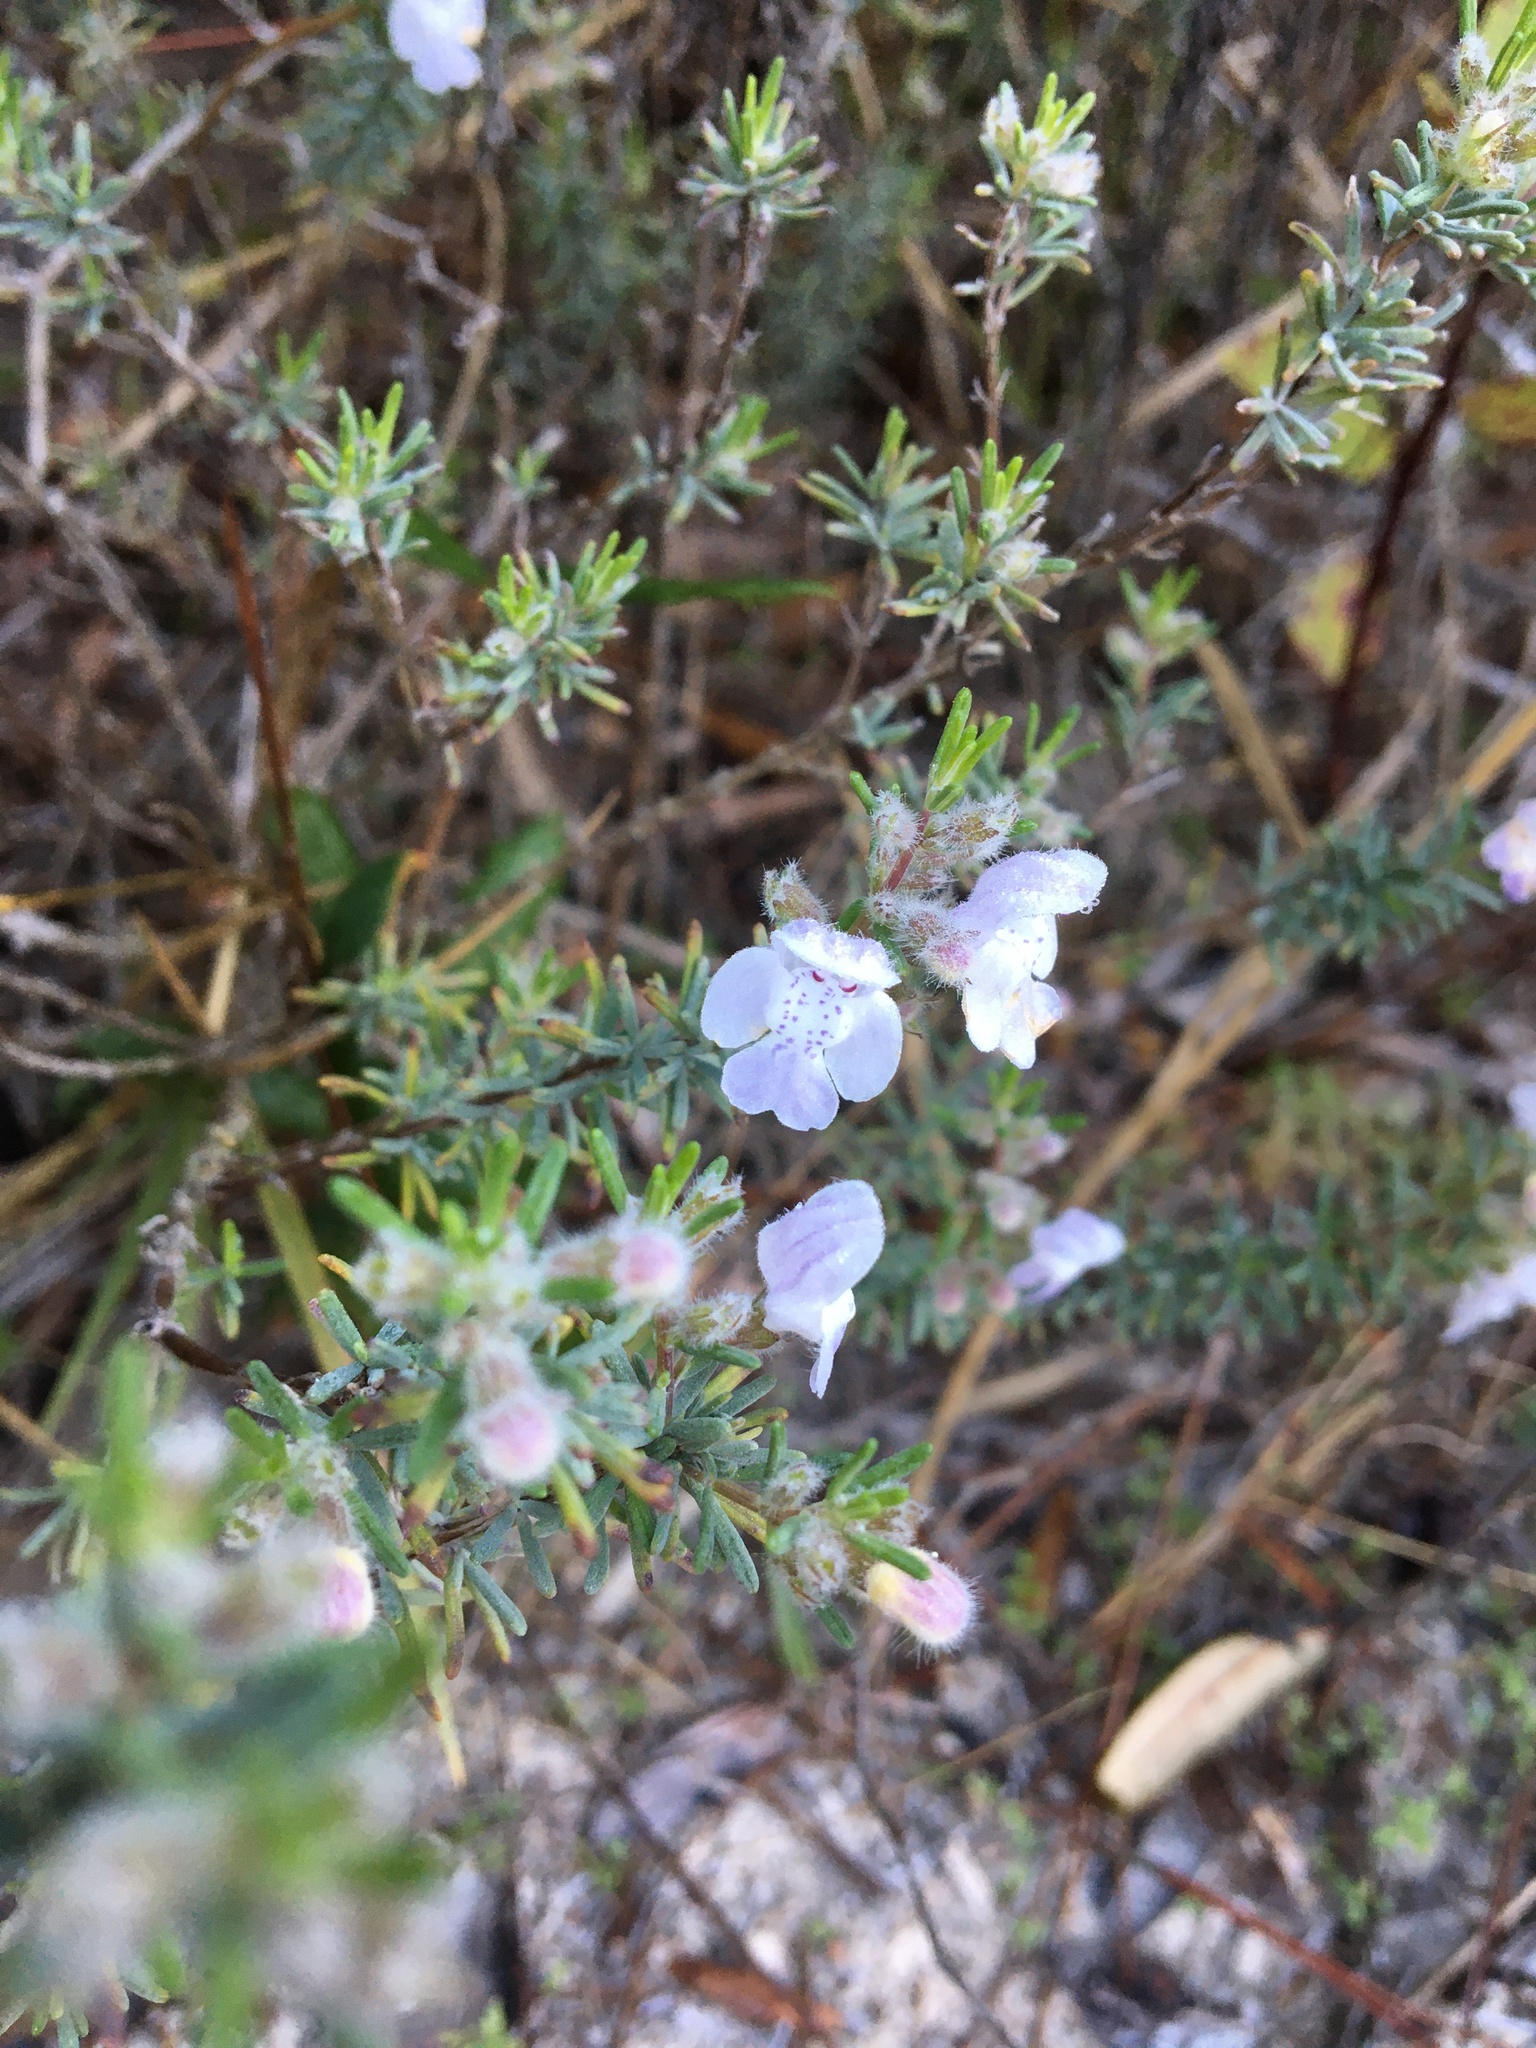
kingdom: Plantae
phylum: Tracheophyta
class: Magnoliopsida
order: Lamiales
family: Lamiaceae
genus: Conradina
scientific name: Conradina canescens
